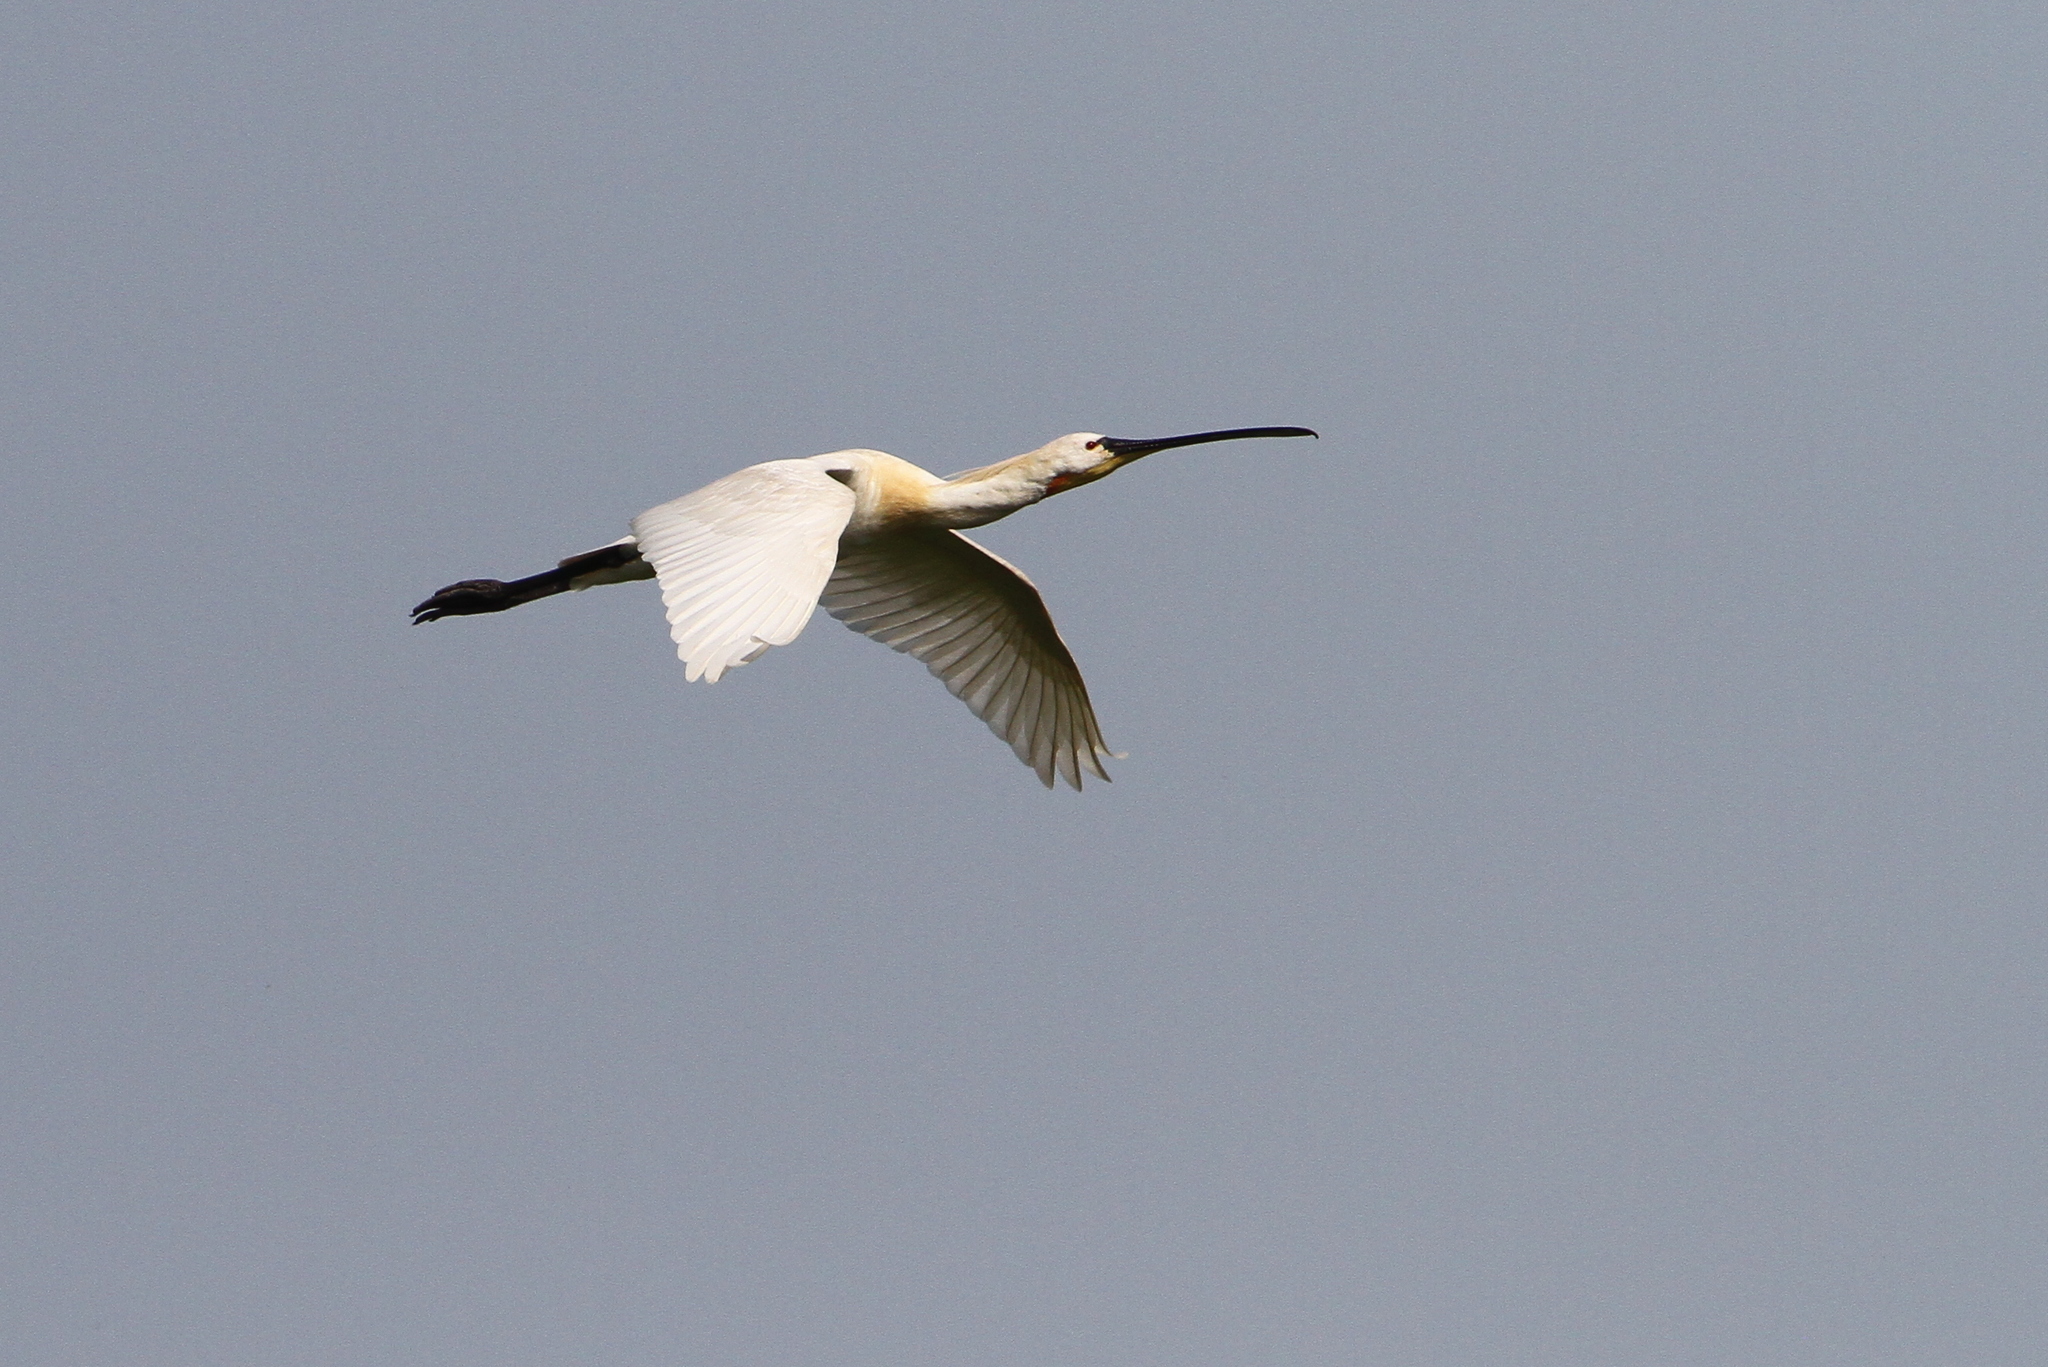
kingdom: Animalia
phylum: Chordata
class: Aves
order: Pelecaniformes
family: Threskiornithidae
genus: Platalea
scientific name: Platalea leucorodia
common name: Eurasian spoonbill
